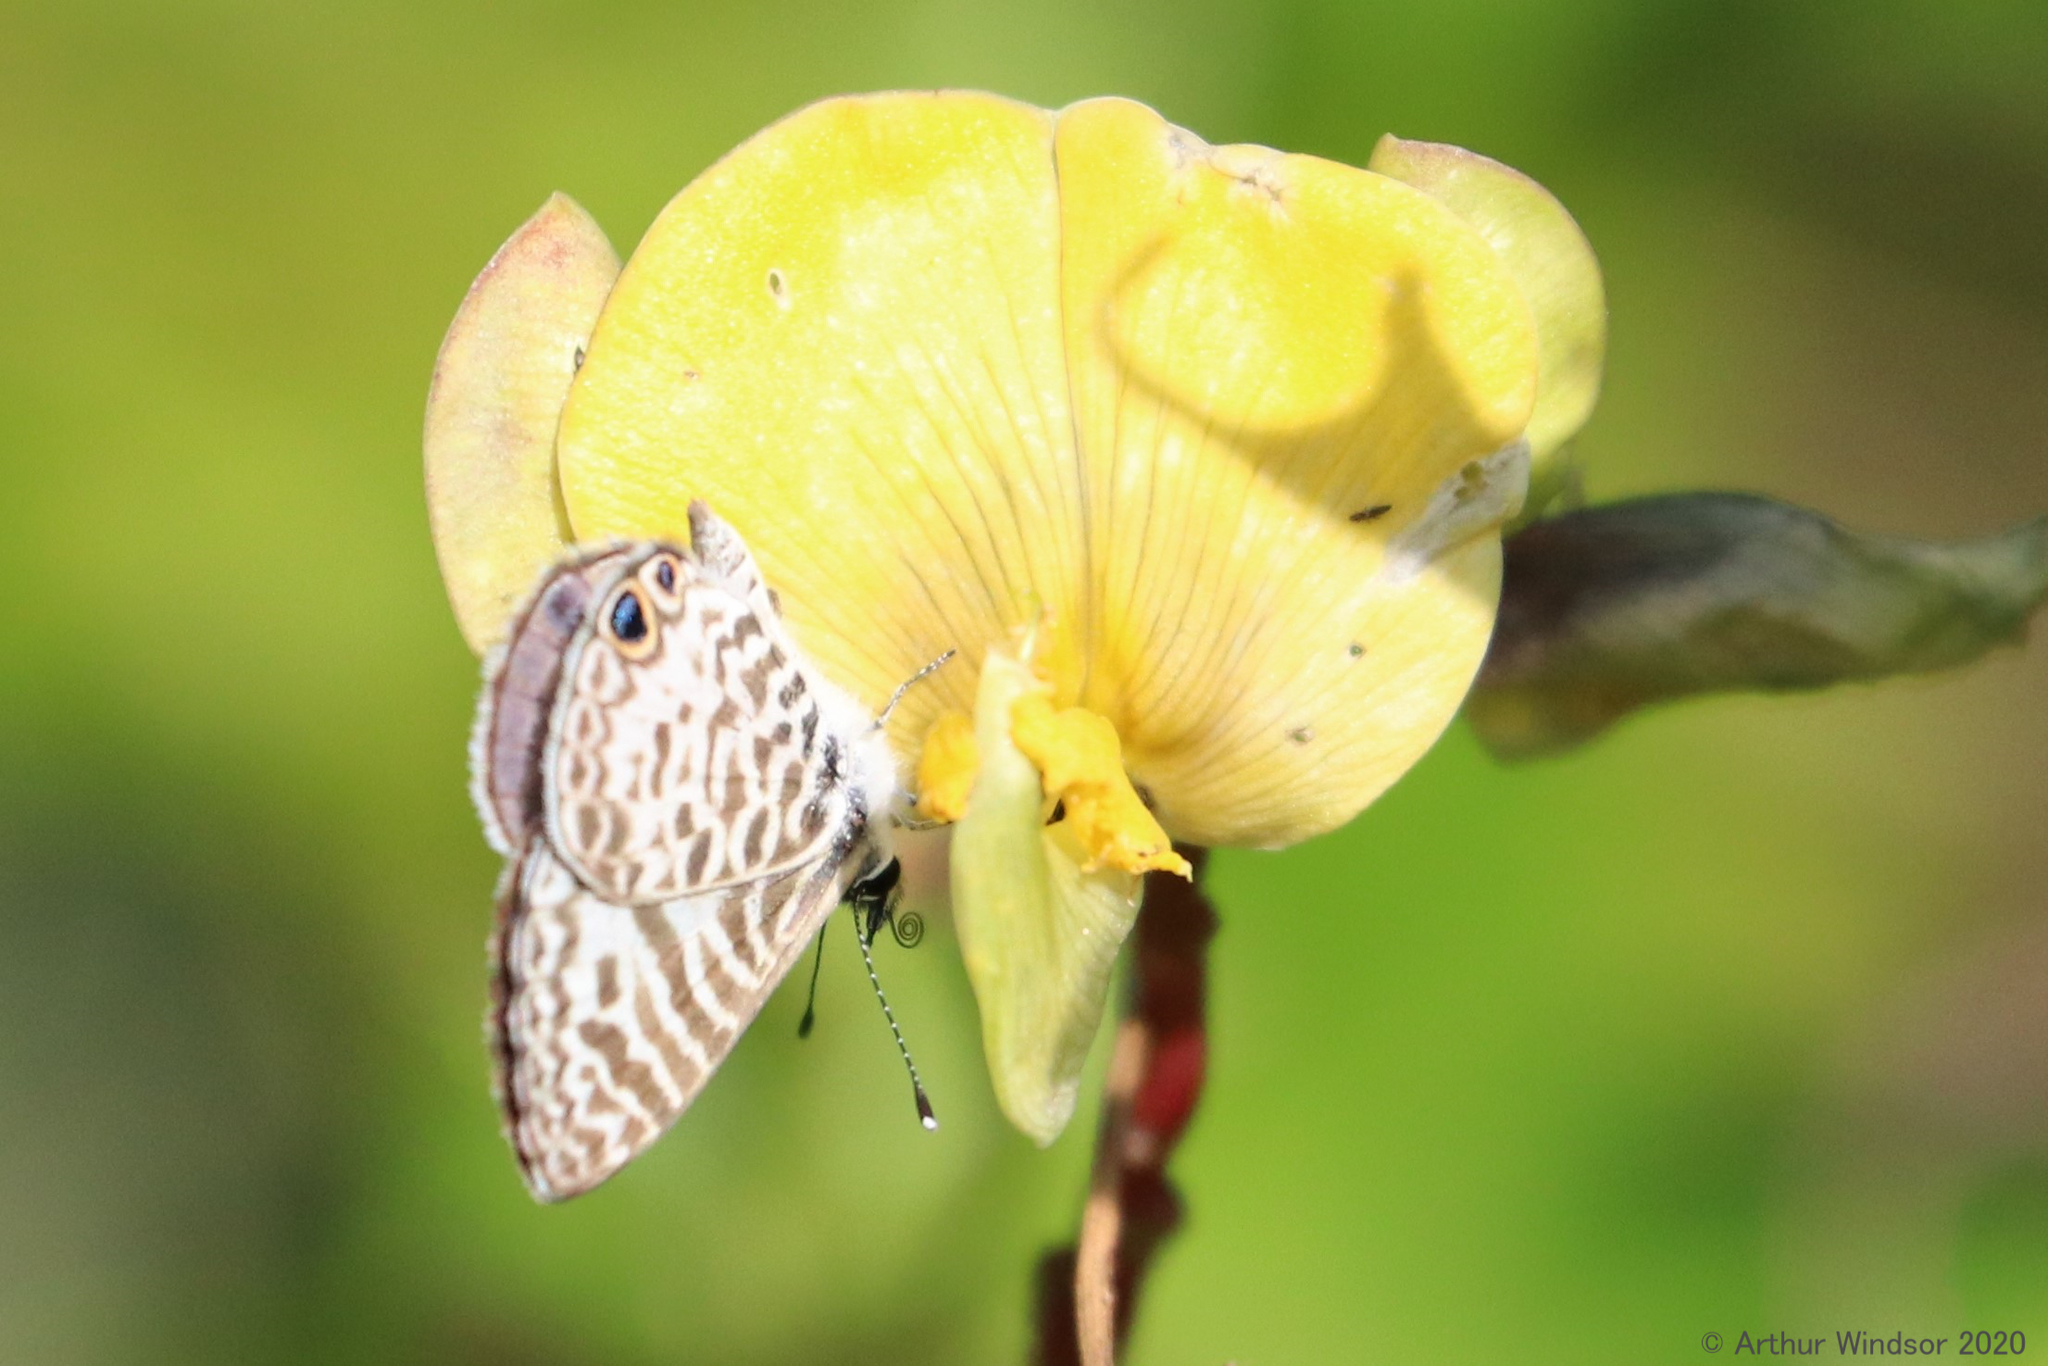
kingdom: Animalia
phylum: Arthropoda
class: Insecta
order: Lepidoptera
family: Lycaenidae
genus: Leptotes
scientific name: Leptotes cassius
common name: Cassius blue
